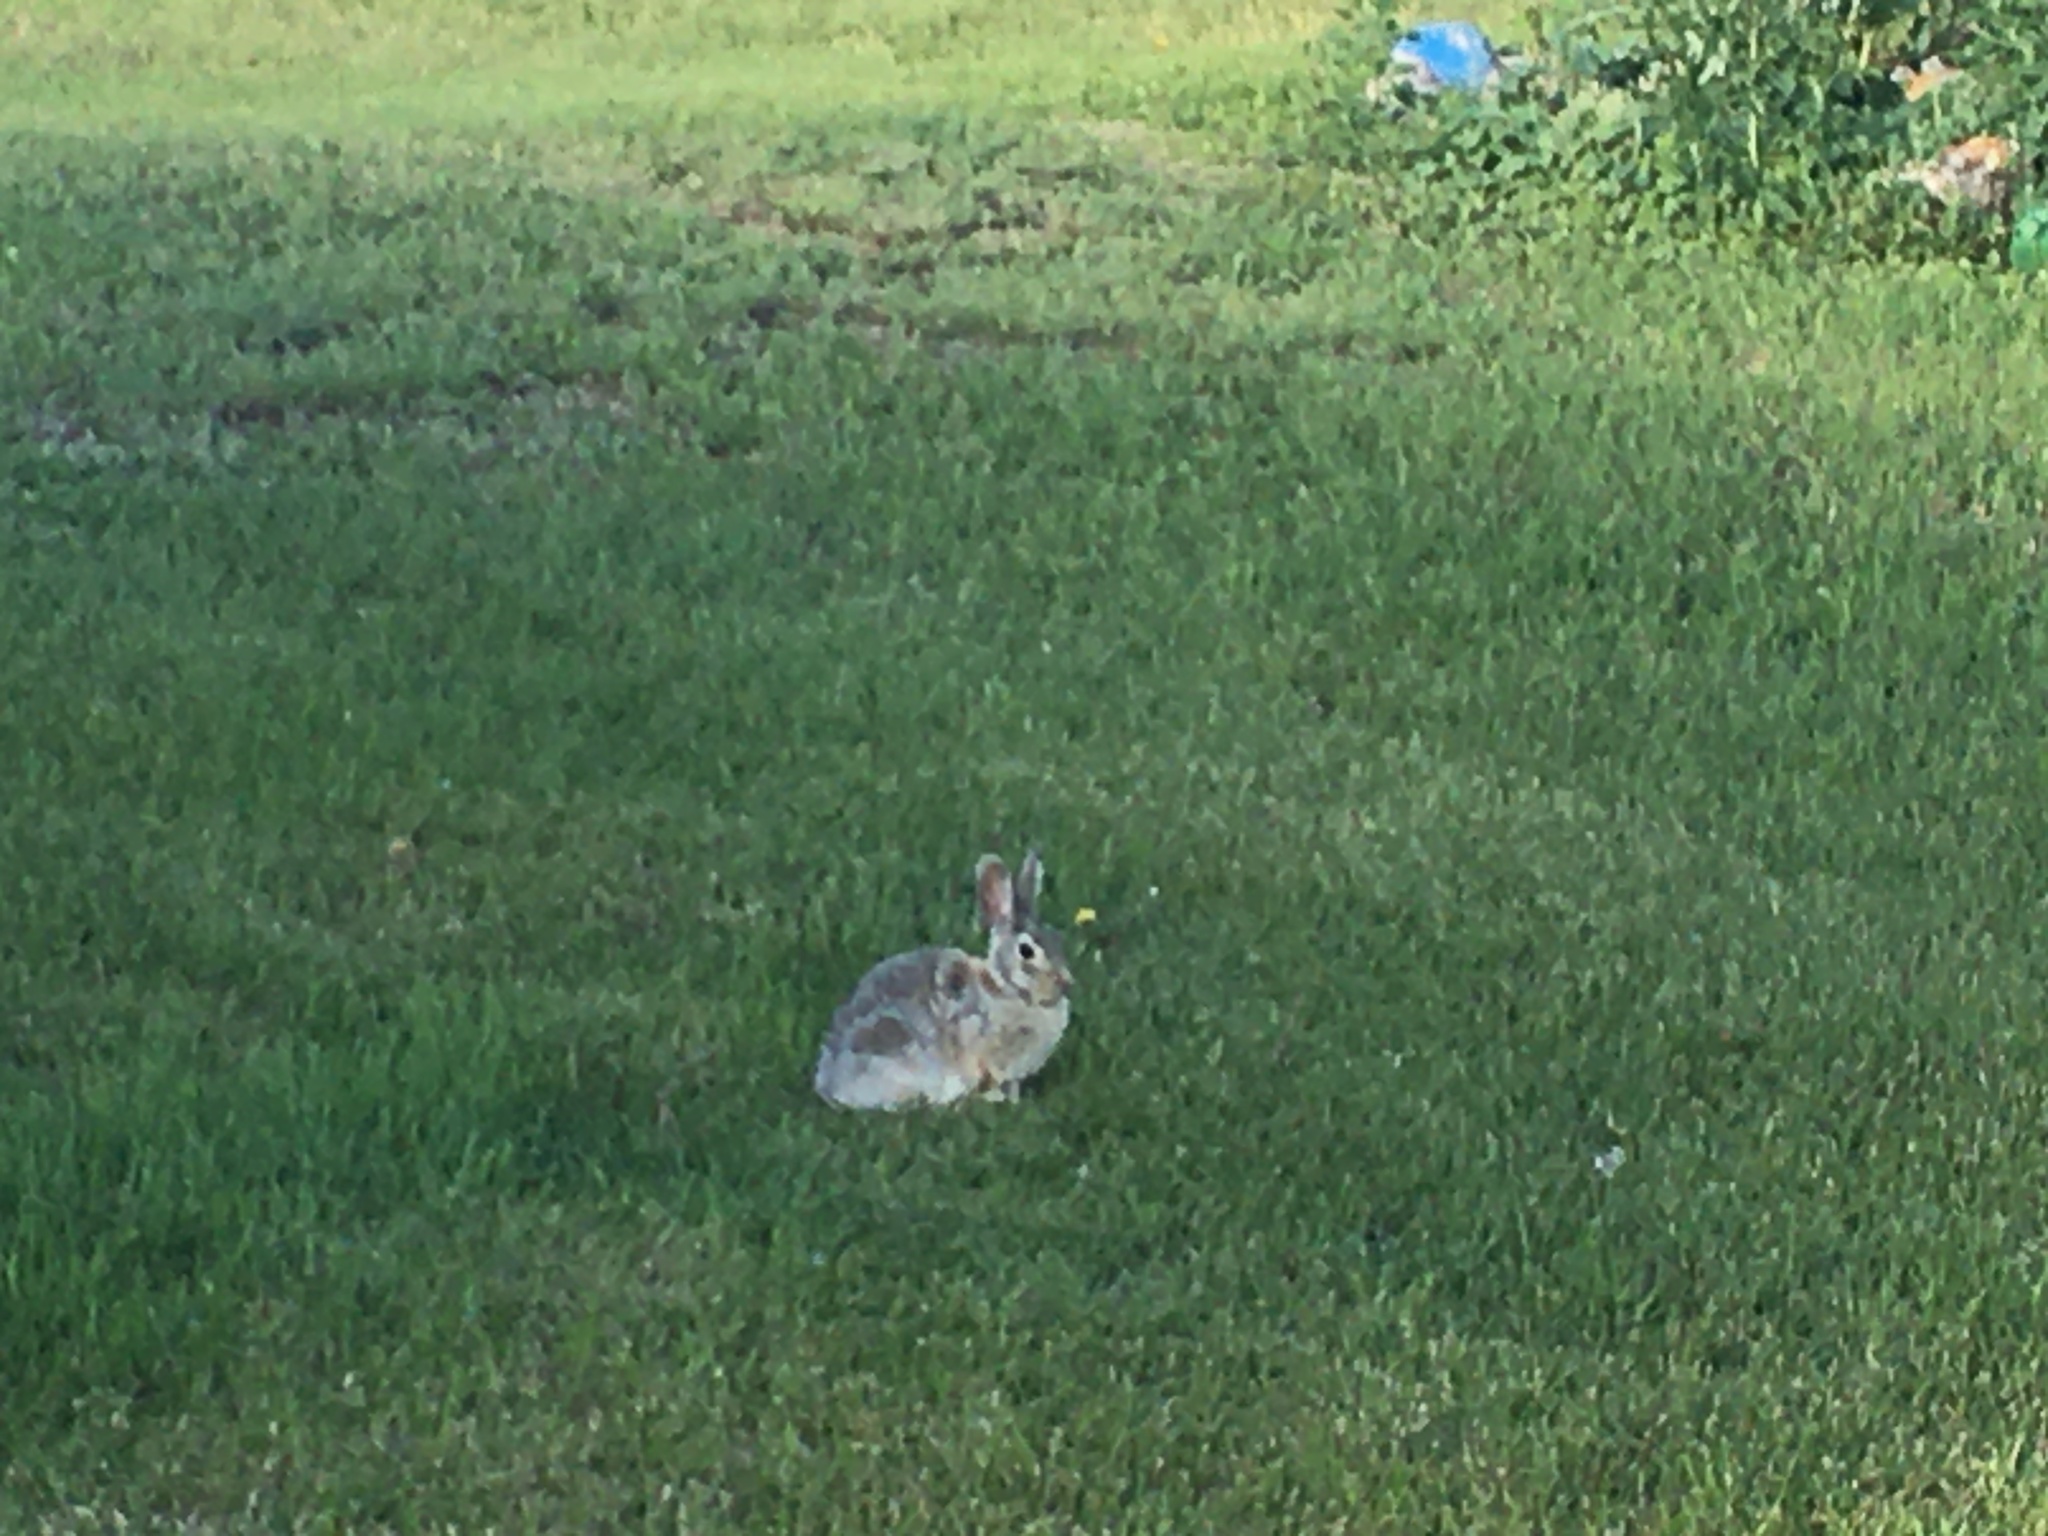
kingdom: Animalia
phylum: Chordata
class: Mammalia
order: Lagomorpha
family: Leporidae
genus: Sylvilagus
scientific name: Sylvilagus nuttallii
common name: Mountain cottontail
